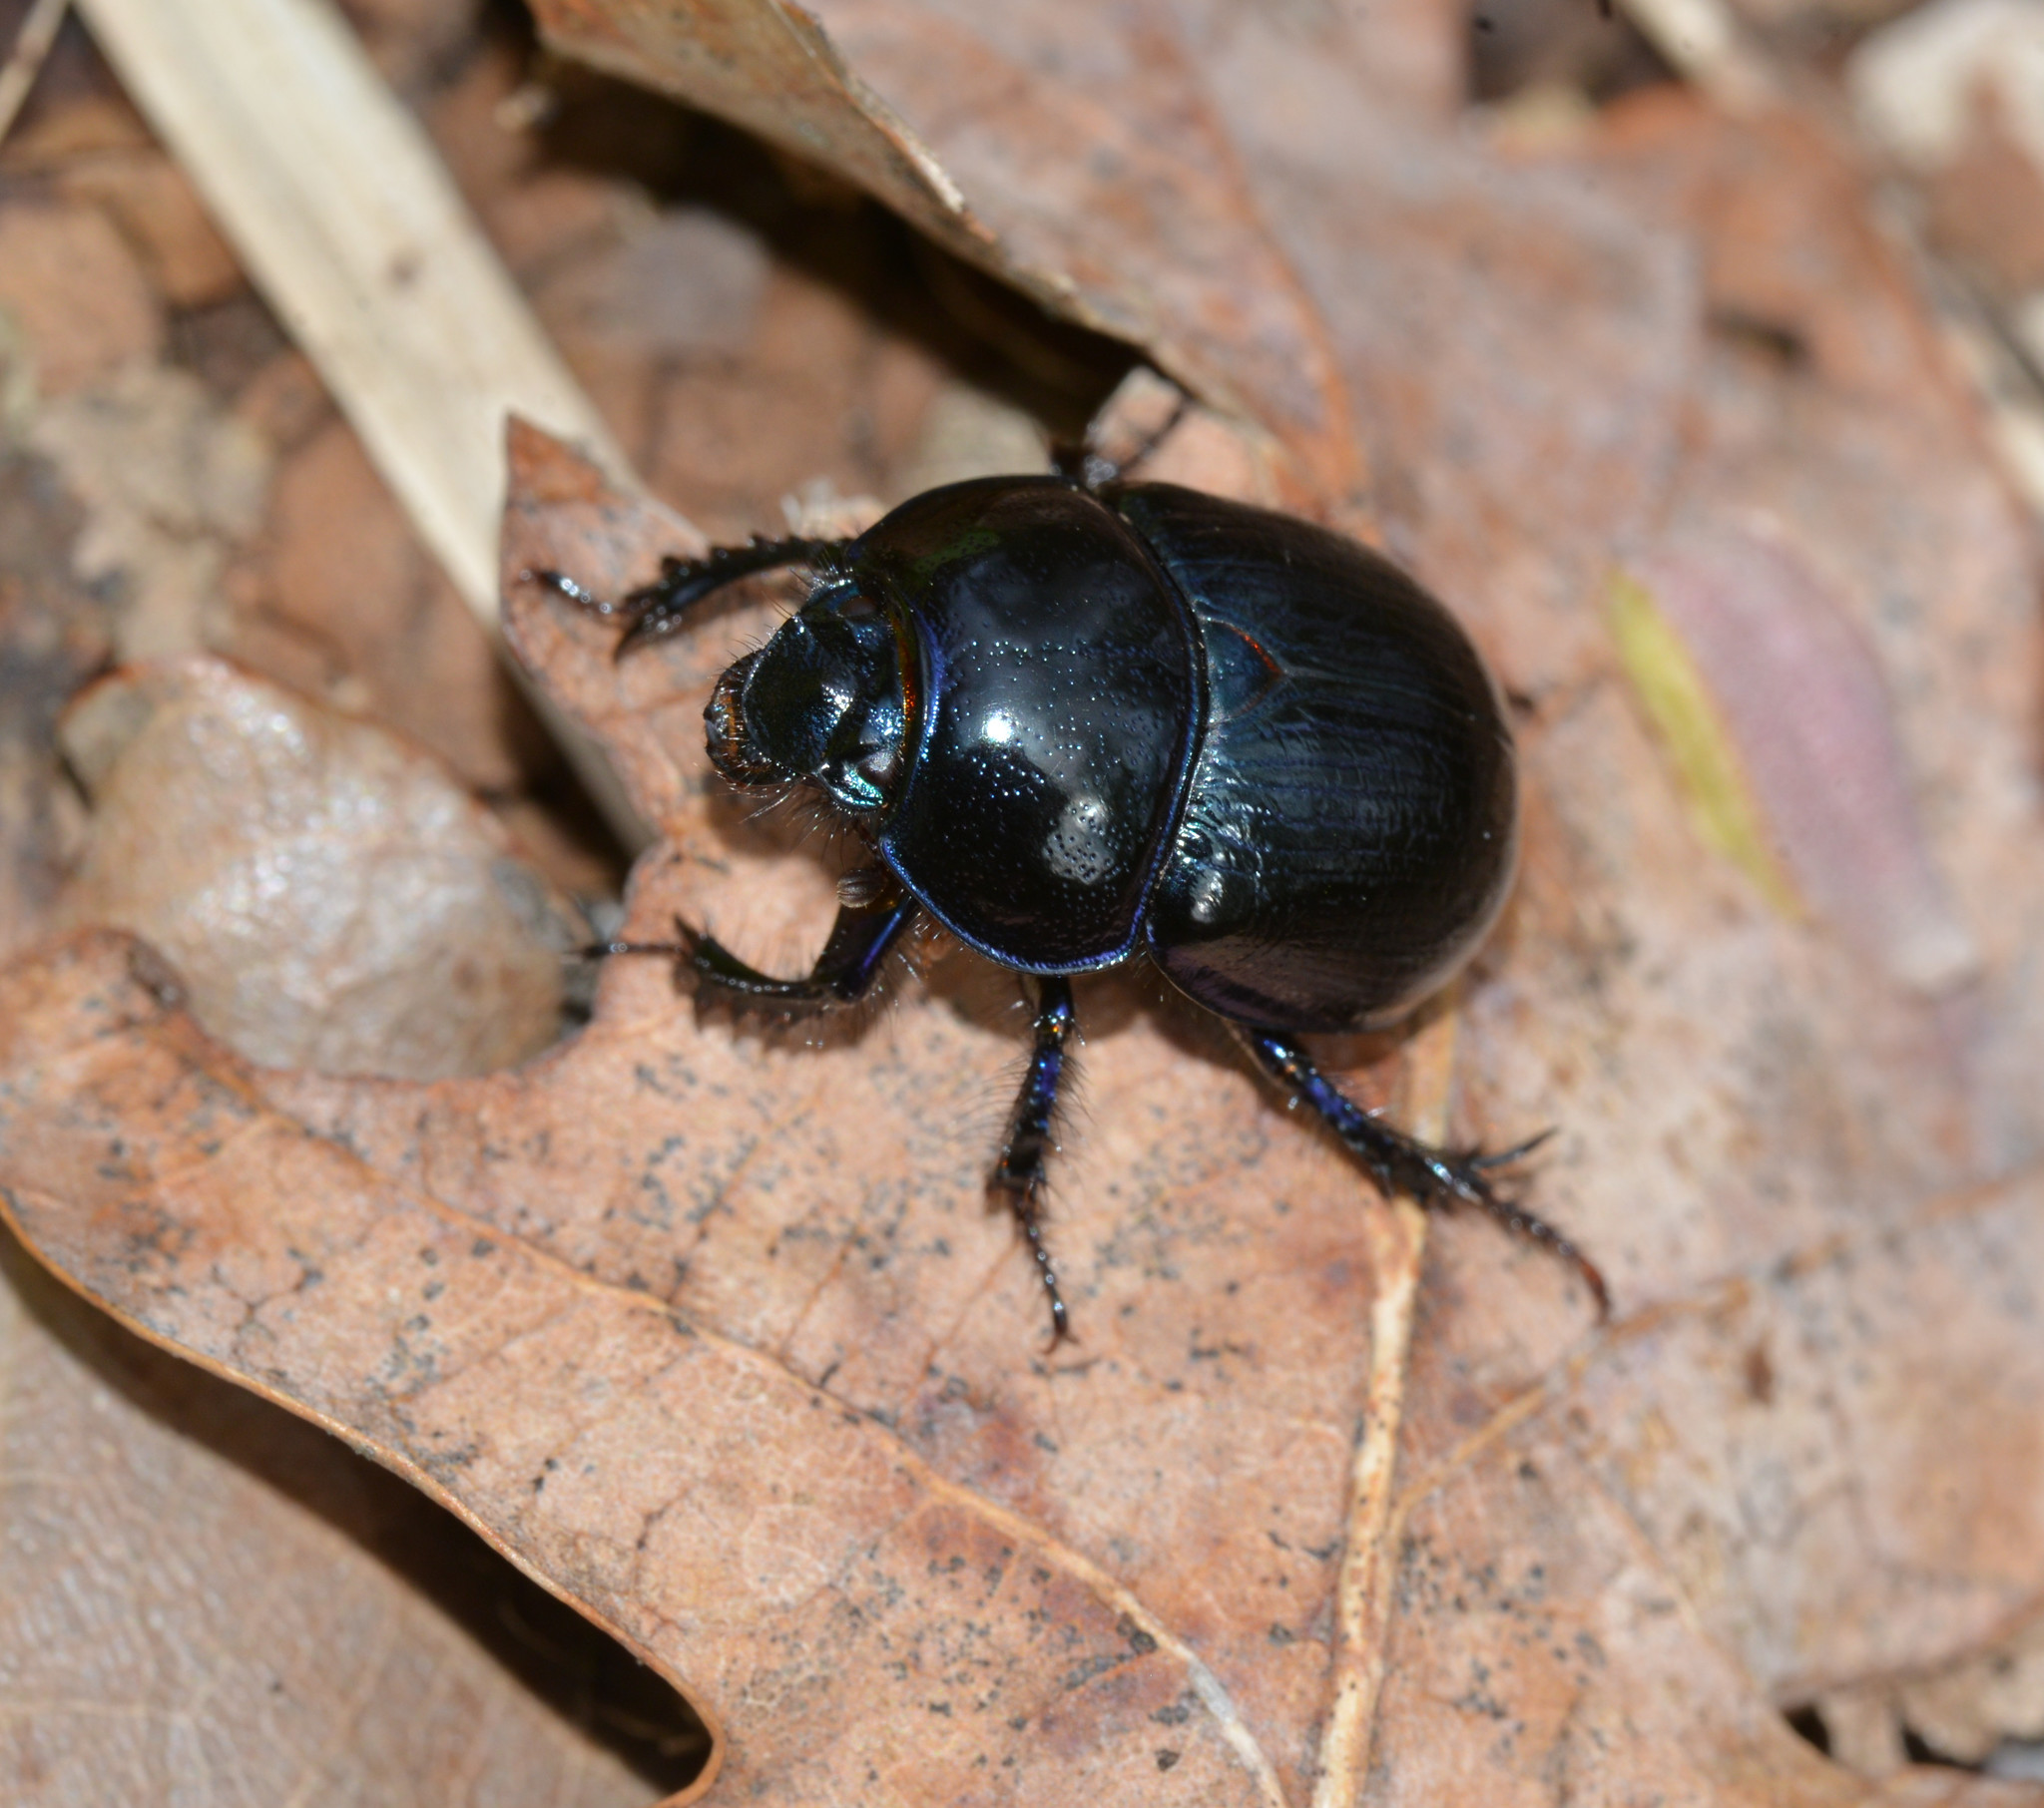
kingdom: Animalia
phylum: Arthropoda
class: Insecta
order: Coleoptera
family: Geotrupidae
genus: Anoplotrupes
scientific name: Anoplotrupes stercorosus
